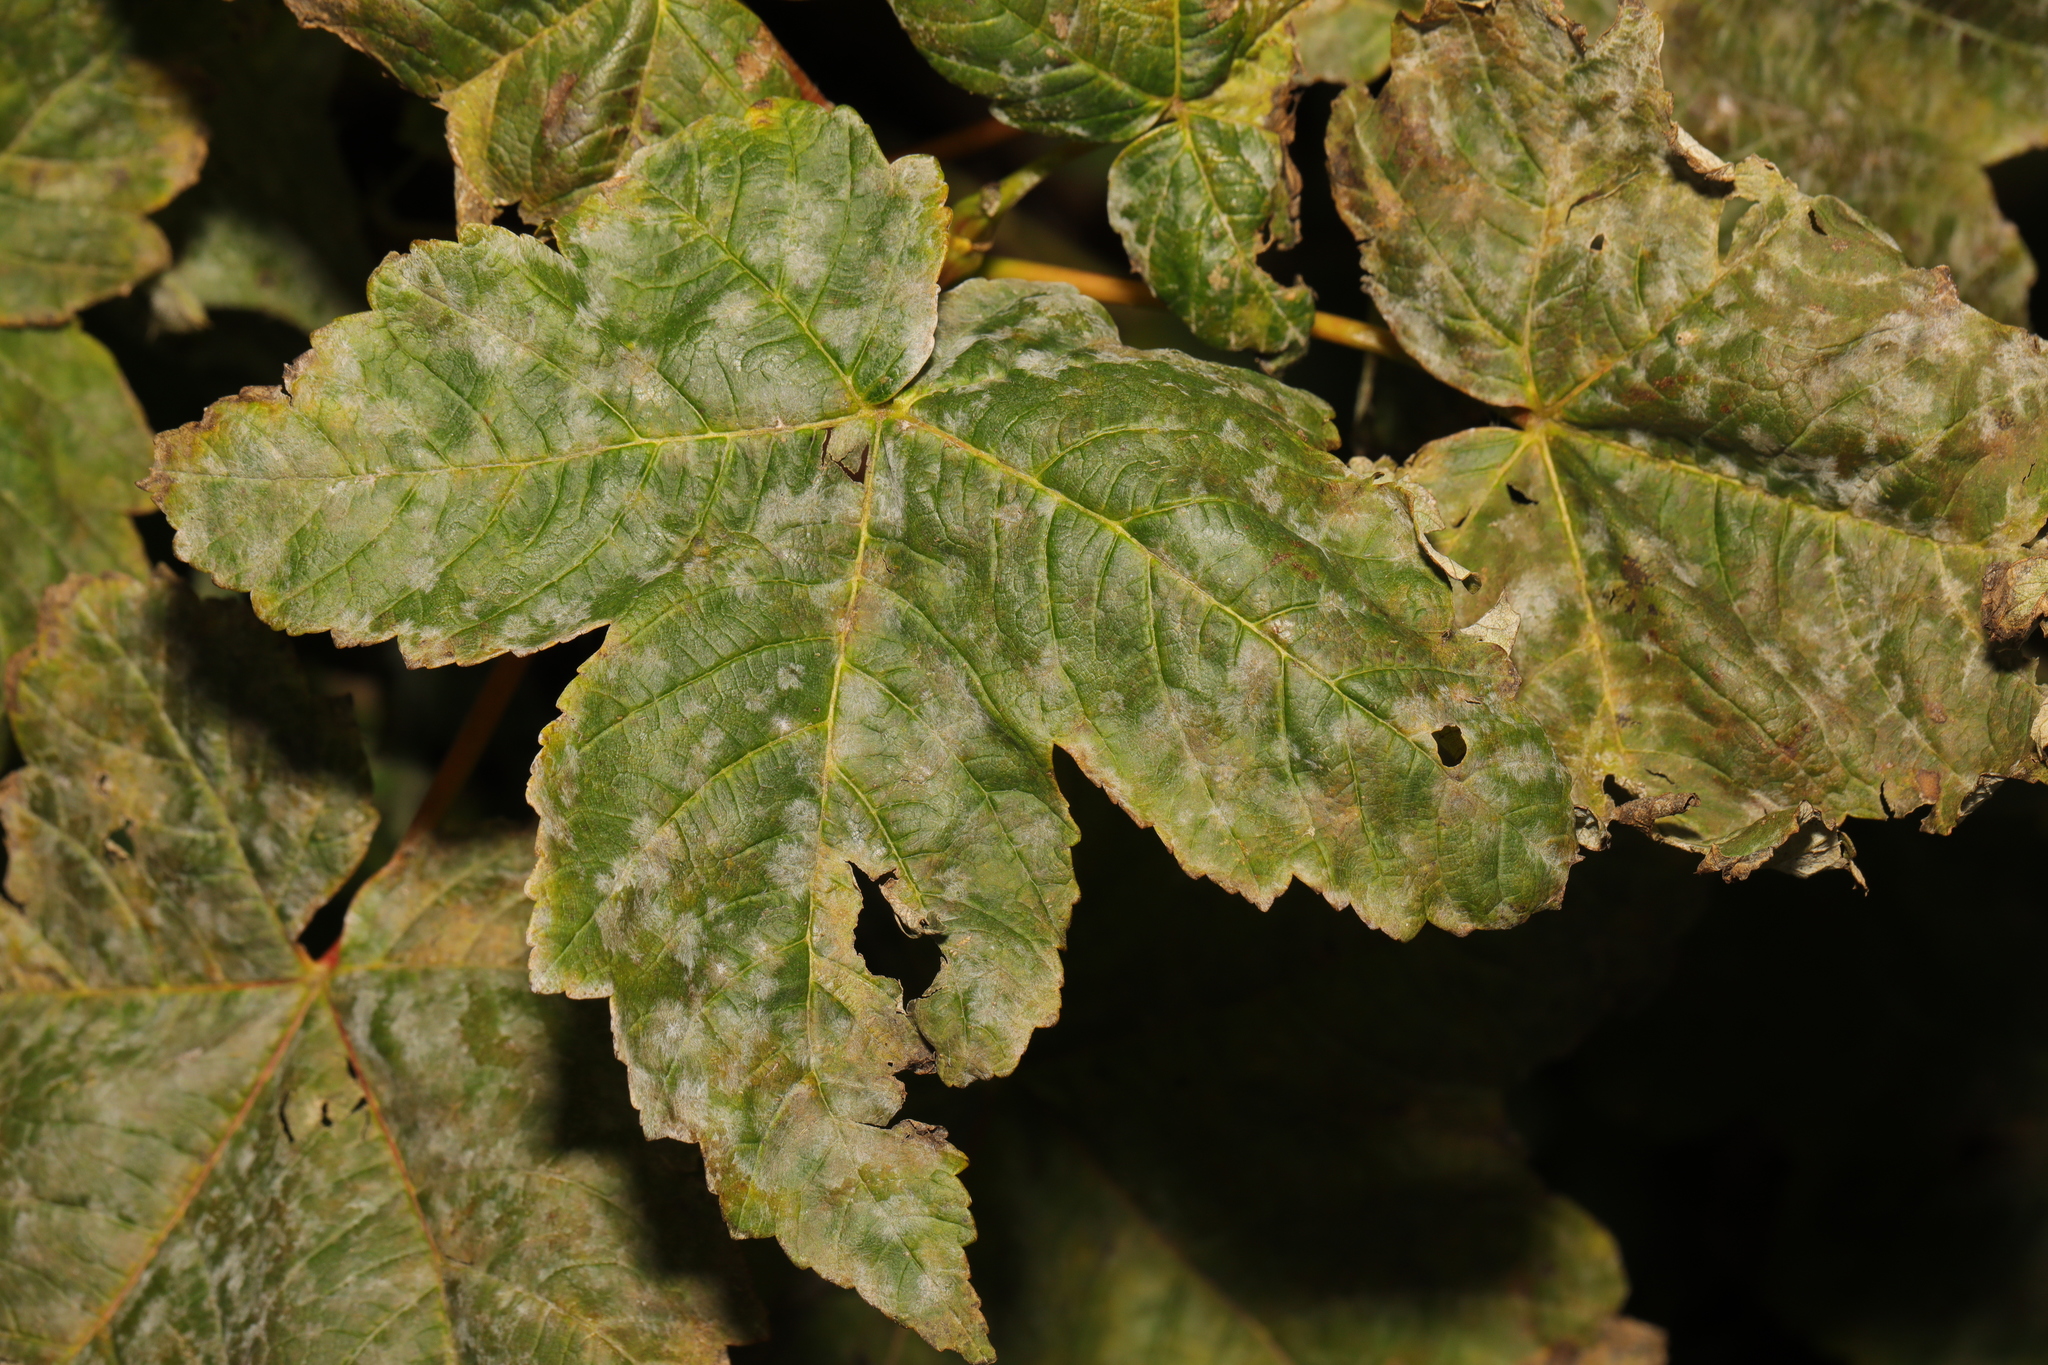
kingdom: Fungi
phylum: Ascomycota
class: Leotiomycetes
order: Helotiales
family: Erysiphaceae
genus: Sawadaea
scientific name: Sawadaea bicornis
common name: Maple mildew
